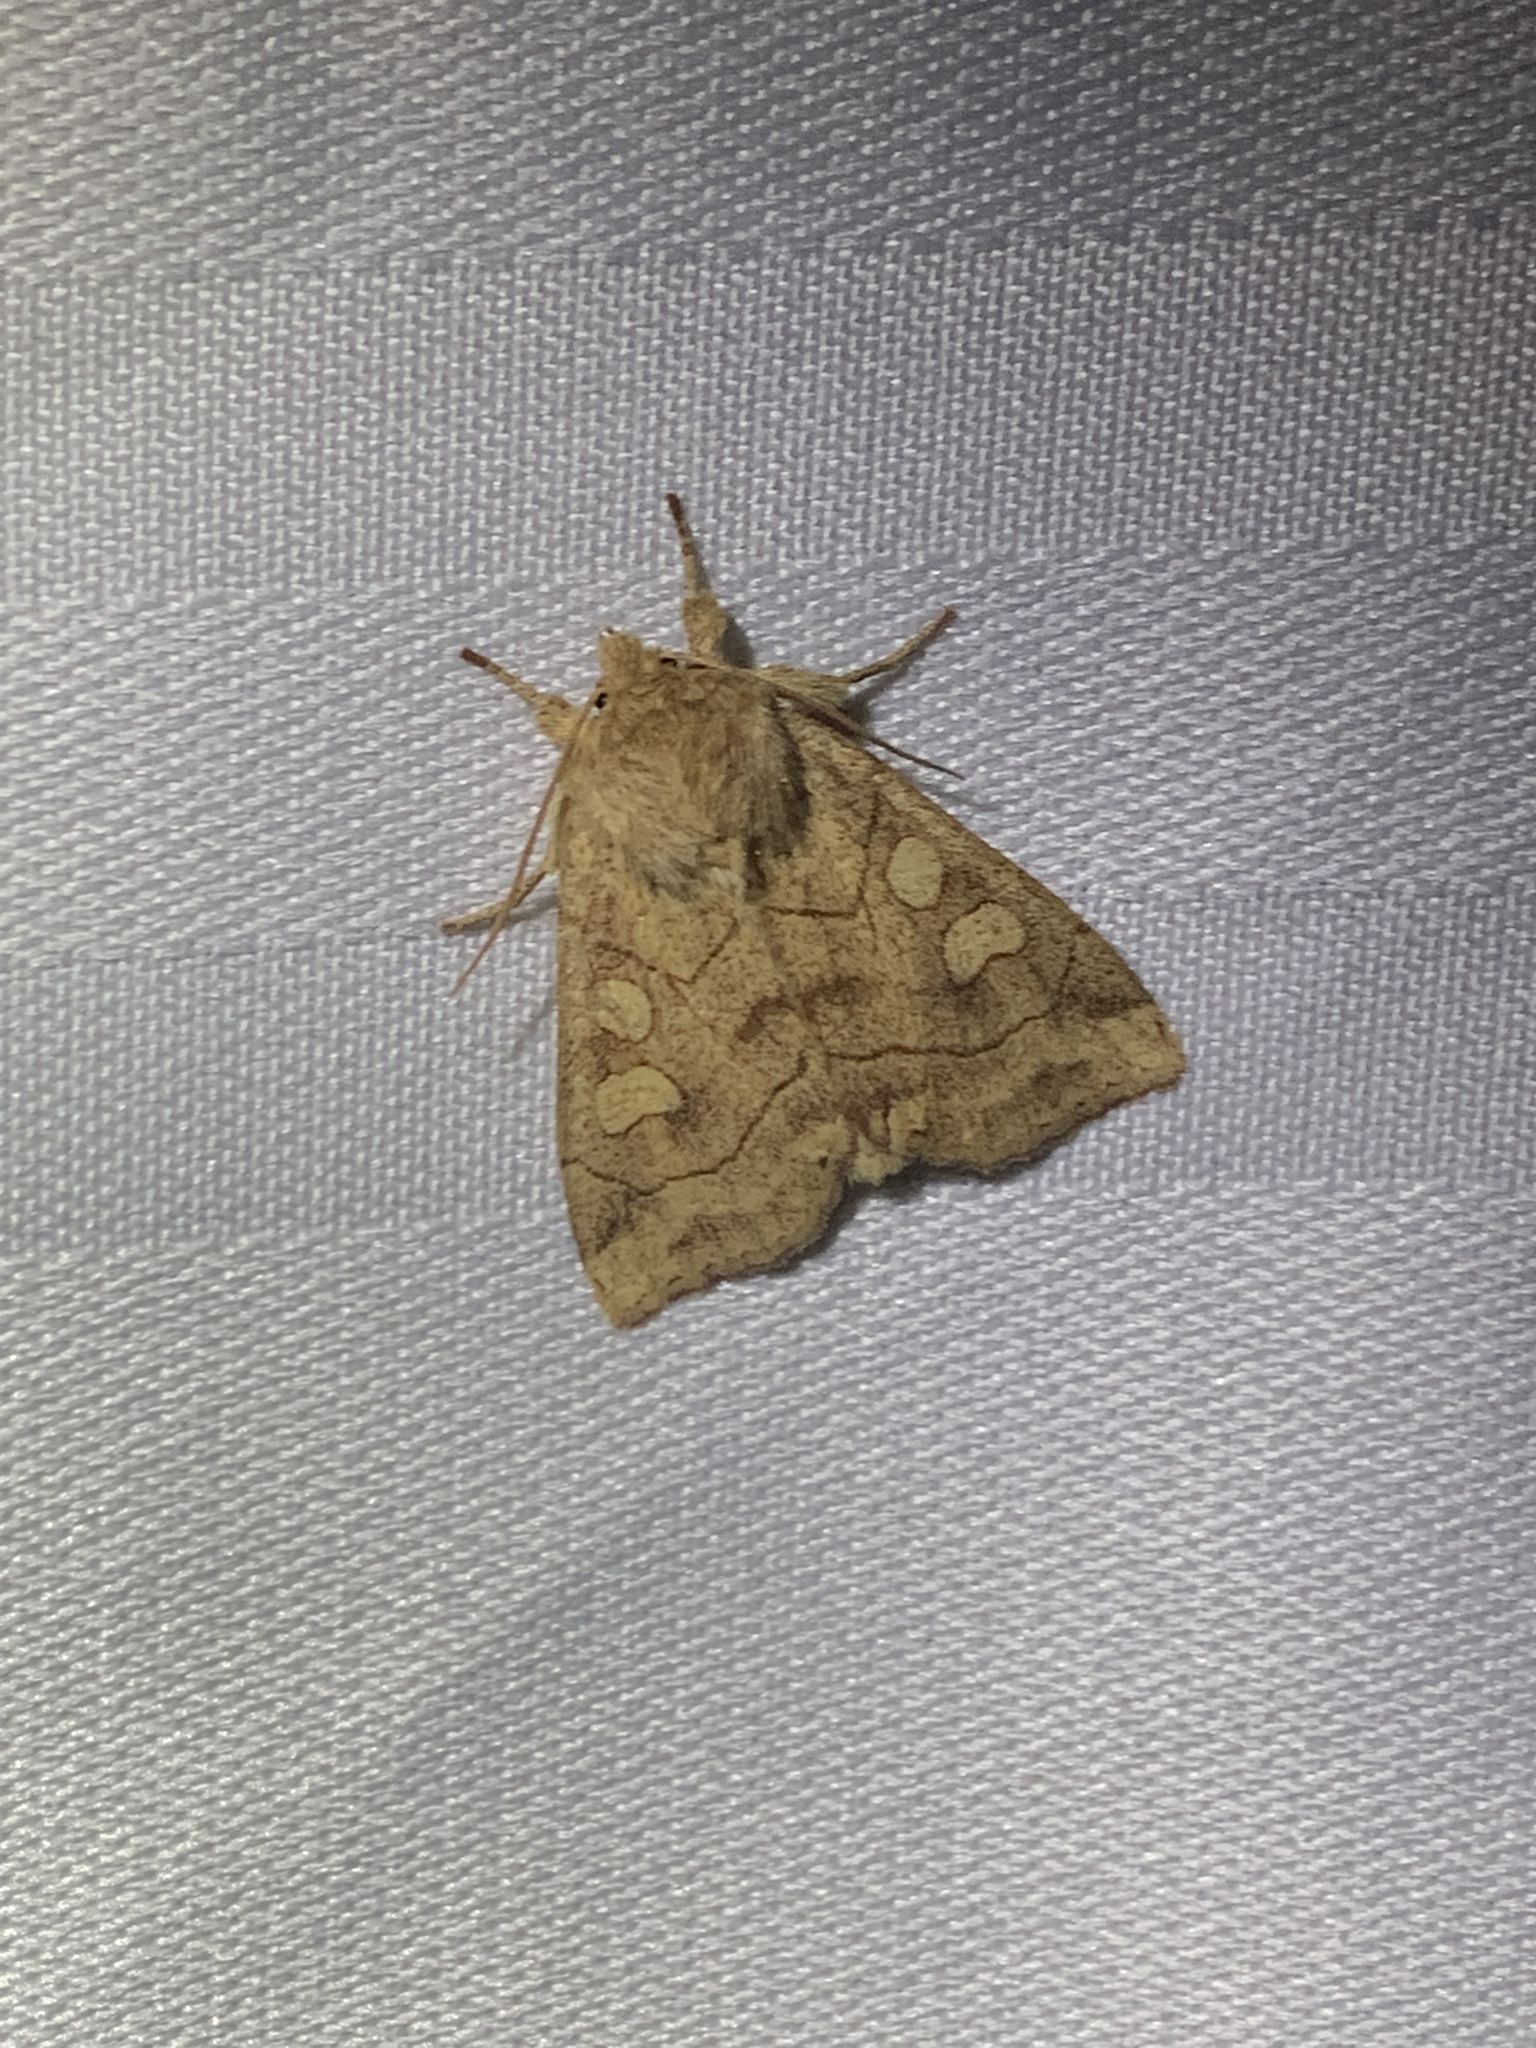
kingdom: Animalia
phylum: Arthropoda
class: Insecta
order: Lepidoptera
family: Noctuidae
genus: Enargia
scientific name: Enargia decolor
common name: Aspen twoleaf tier moth
